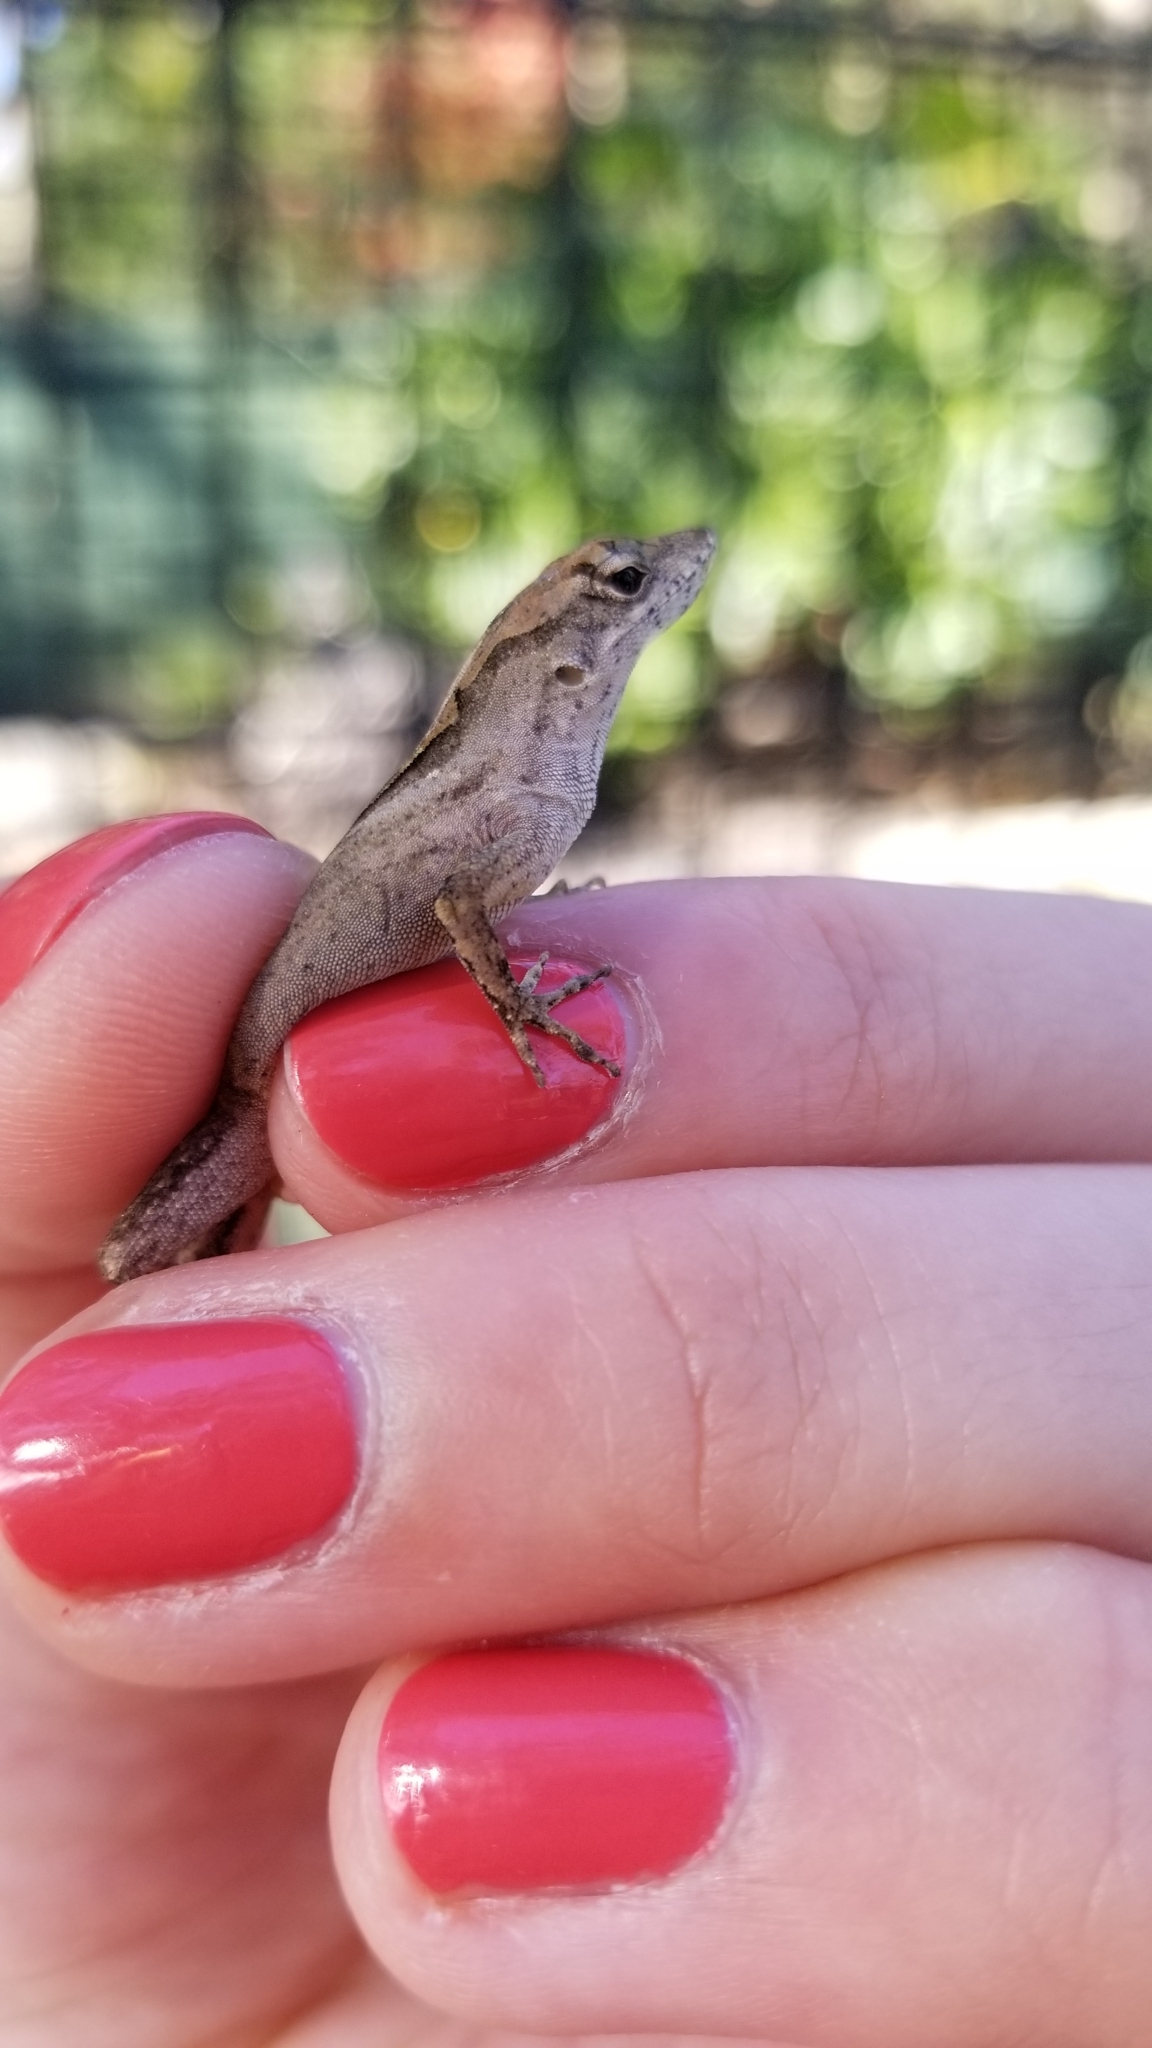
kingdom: Animalia
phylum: Chordata
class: Squamata
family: Dactyloidae
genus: Anolis
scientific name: Anolis sagrei
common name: Brown anole
